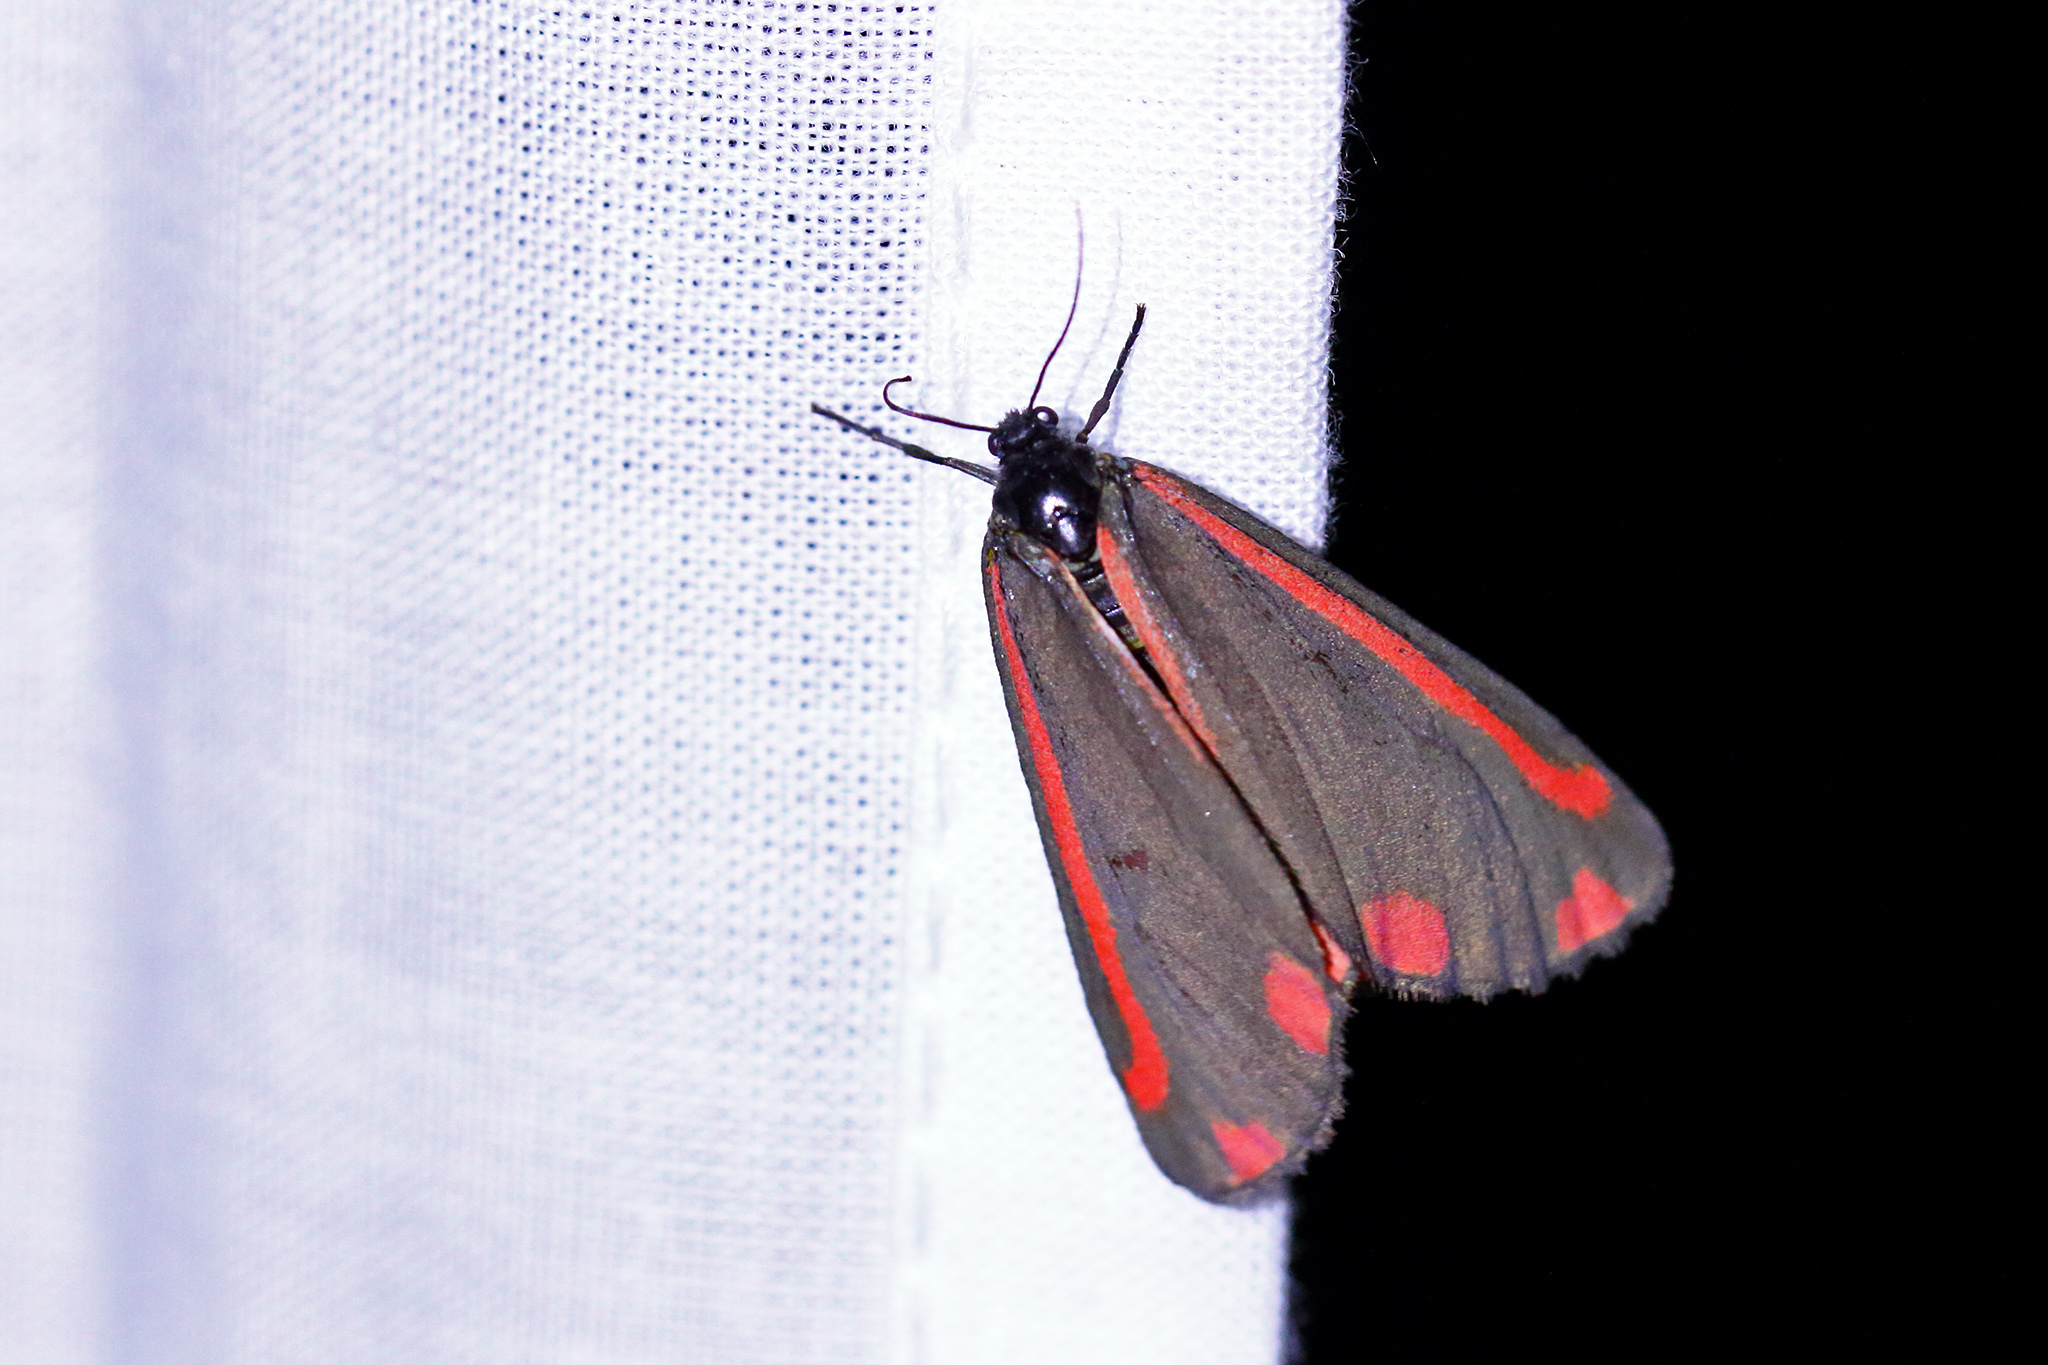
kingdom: Animalia
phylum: Arthropoda
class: Insecta
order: Lepidoptera
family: Erebidae
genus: Tyria
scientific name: Tyria jacobaeae
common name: Cinnabar
